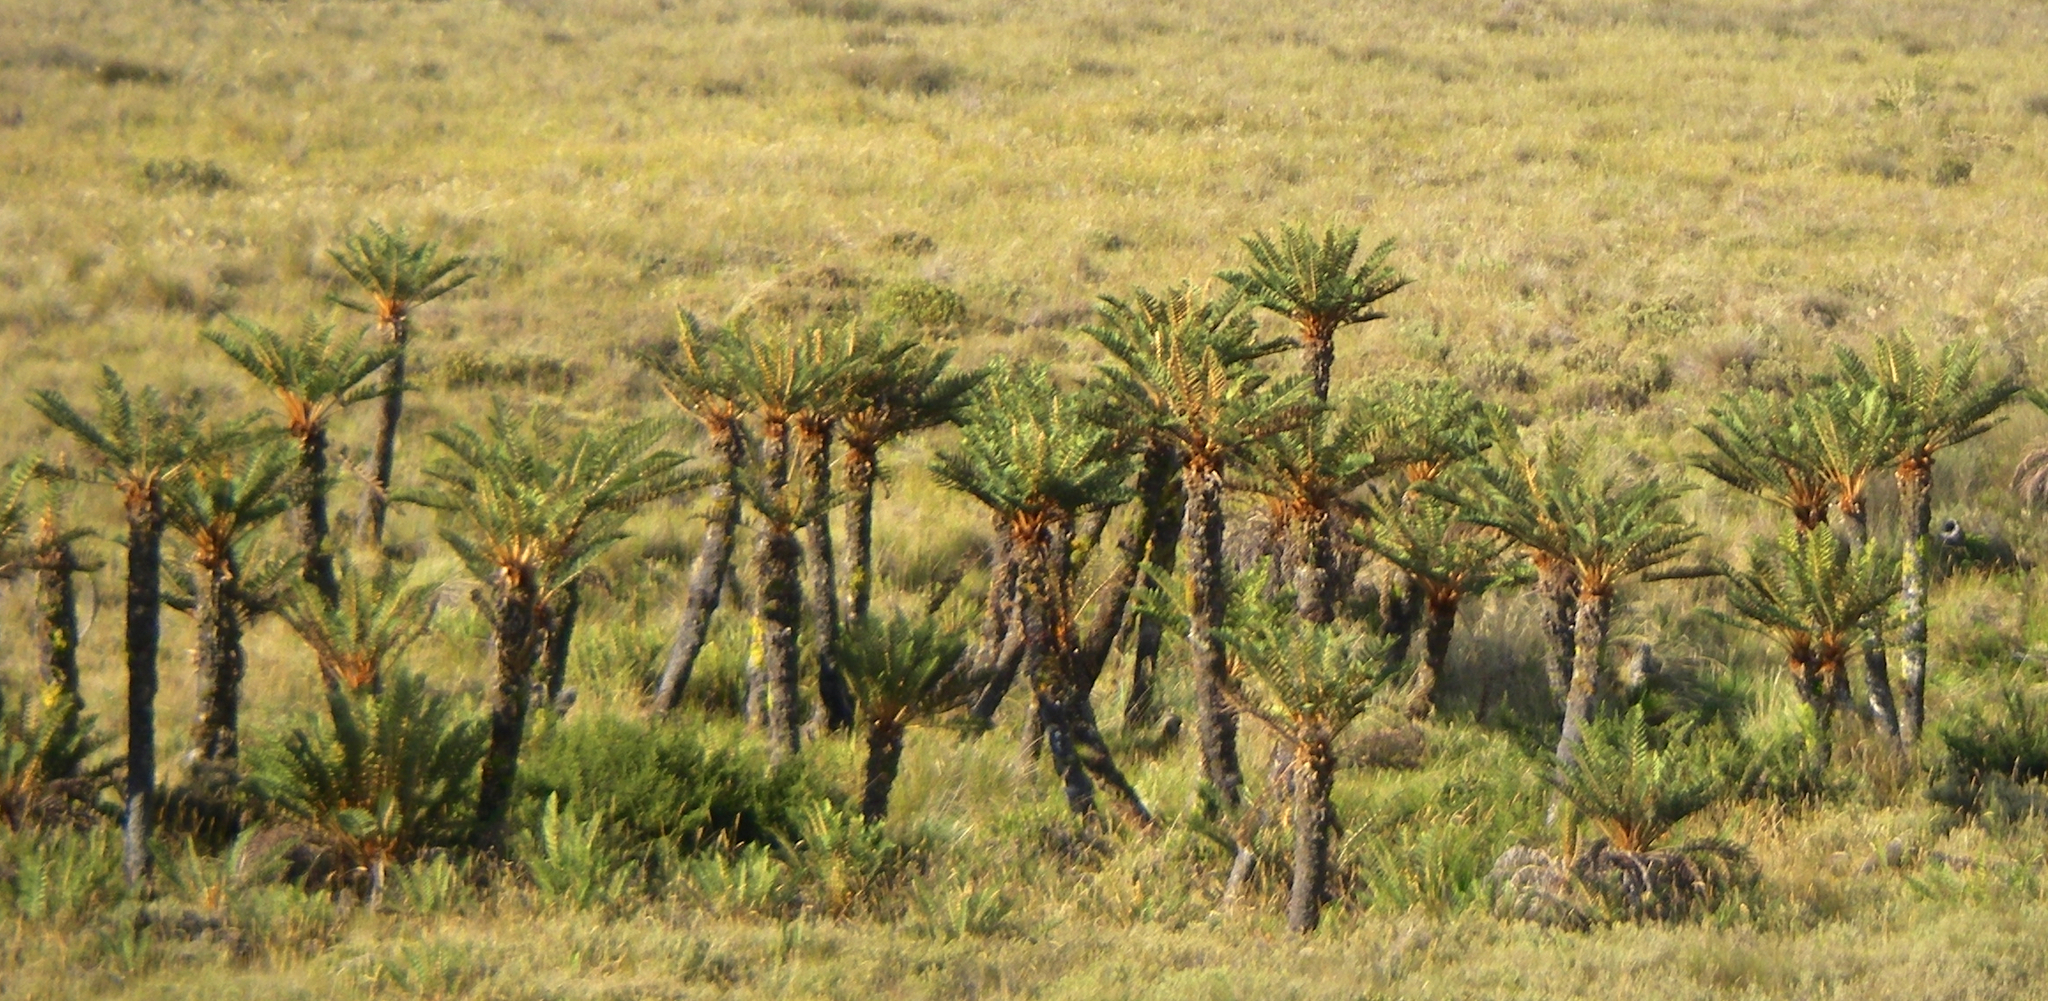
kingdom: Plantae
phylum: Tracheophyta
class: Polypodiopsida
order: Cyatheales
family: Cyatheaceae
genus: Alsophila
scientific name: Alsophila everta
